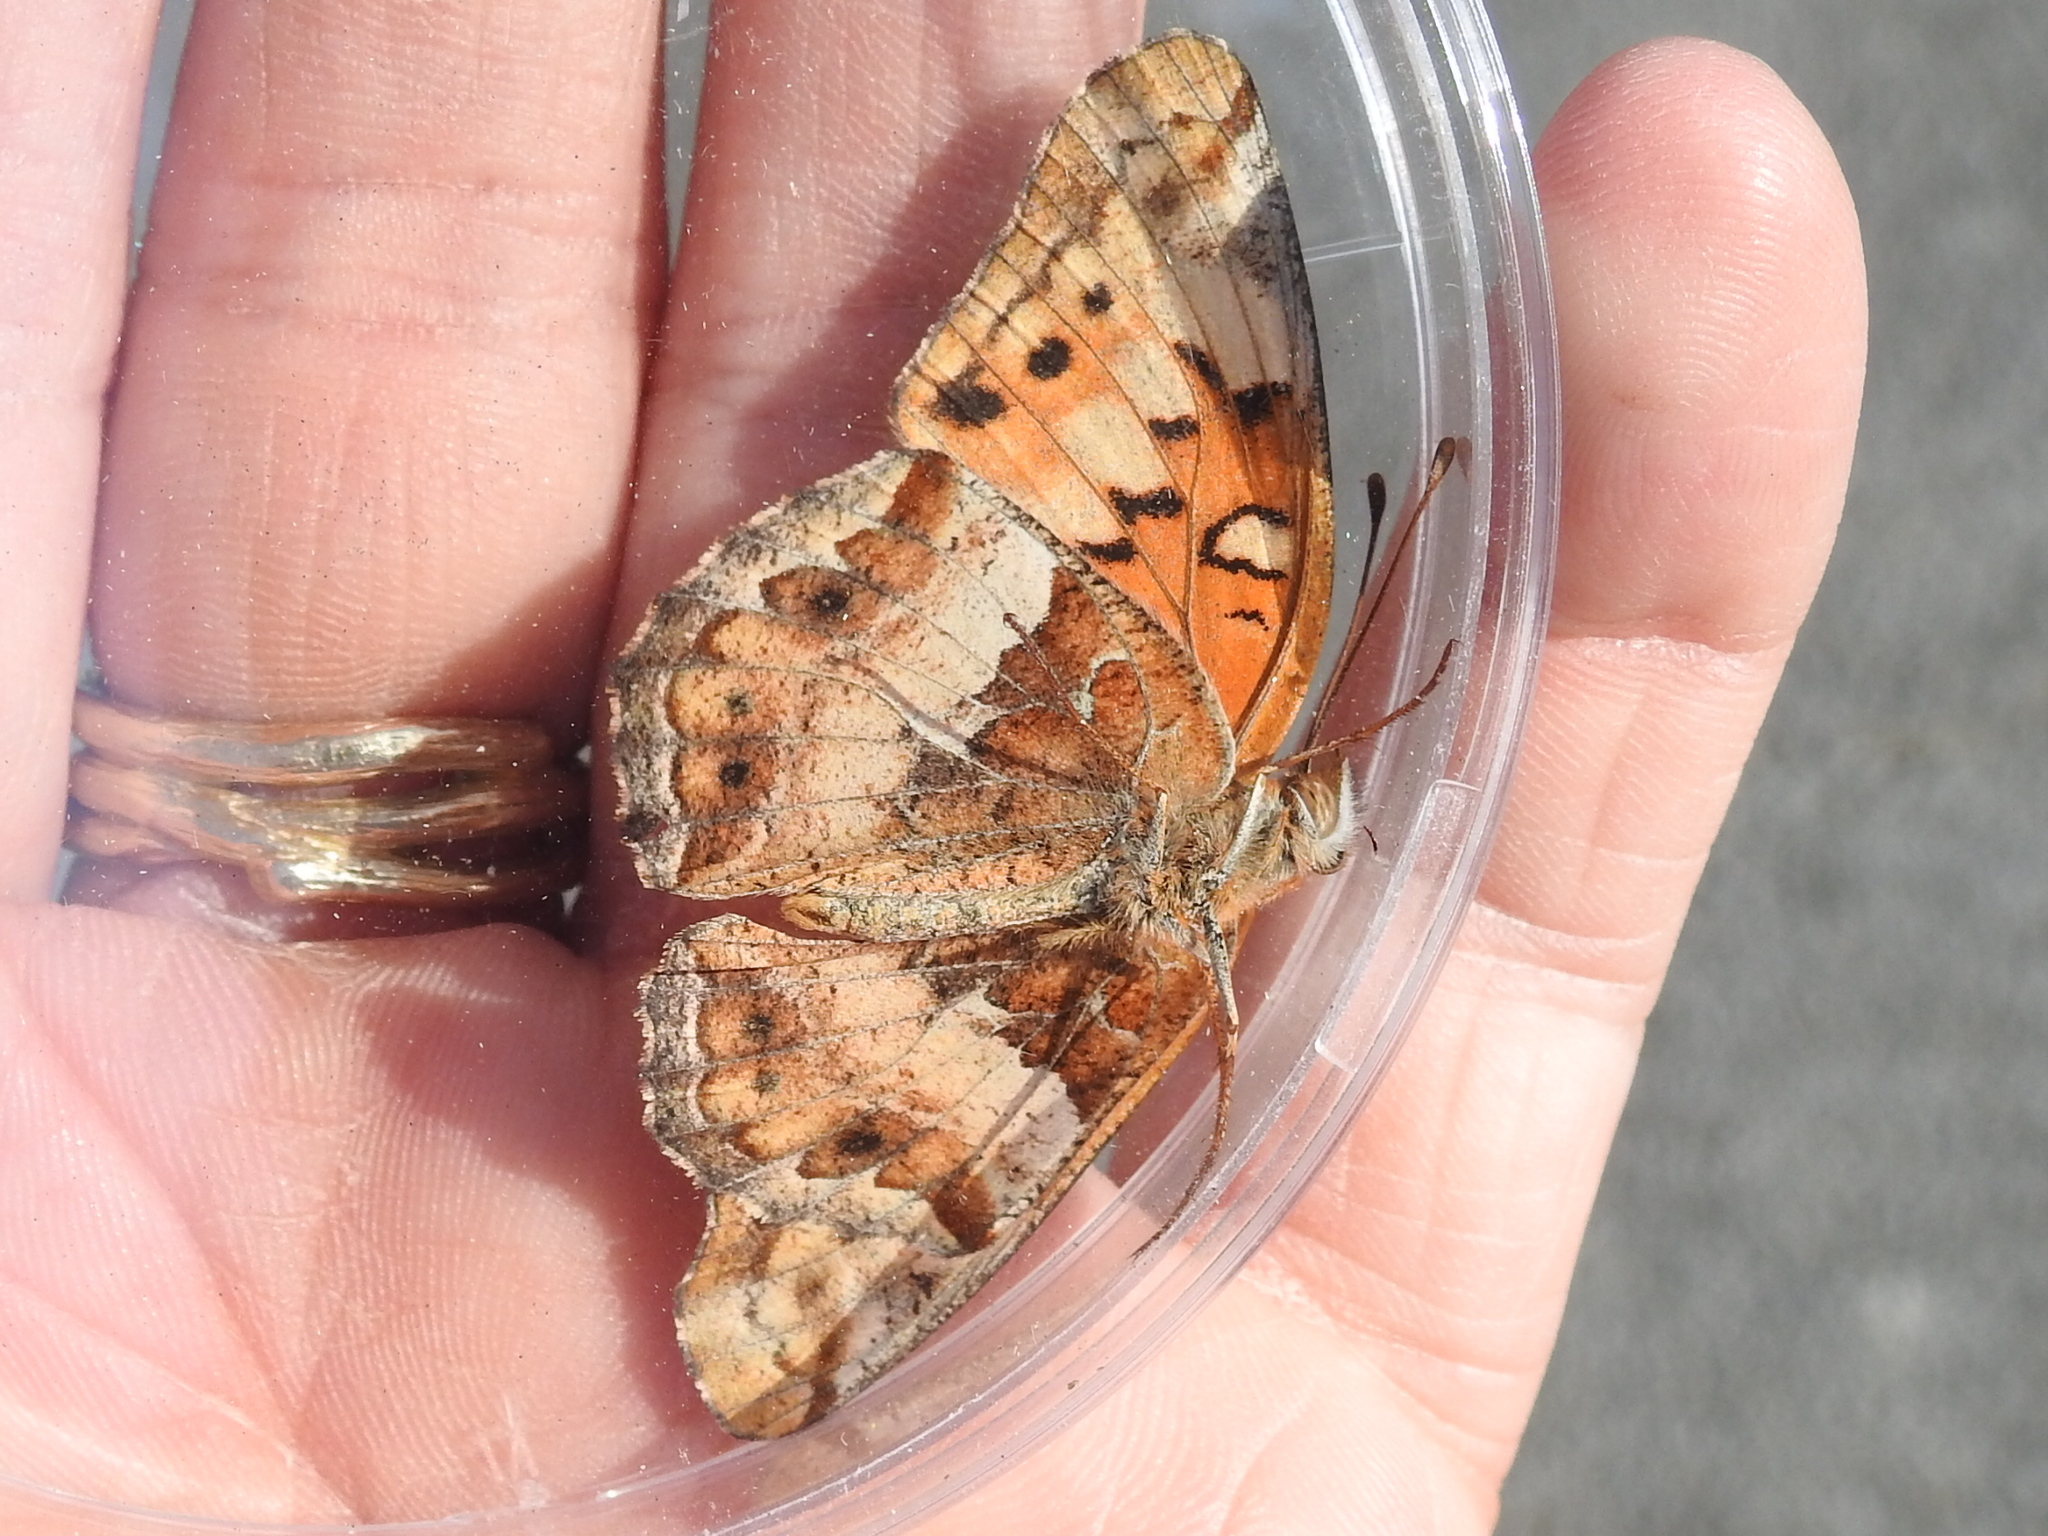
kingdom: Animalia
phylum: Arthropoda
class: Insecta
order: Lepidoptera
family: Nymphalidae
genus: Euptoieta
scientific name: Euptoieta claudia
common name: Variegated fritillary
